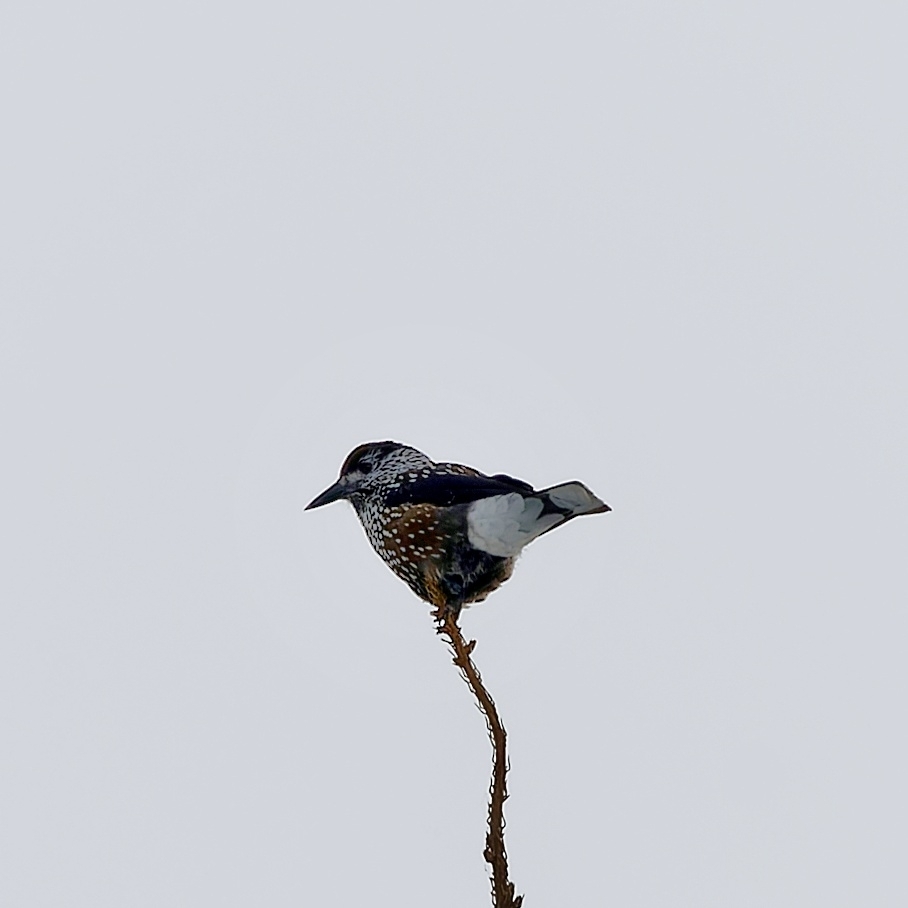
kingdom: Animalia
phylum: Chordata
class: Aves
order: Passeriformes
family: Corvidae
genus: Nucifraga
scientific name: Nucifraga caryocatactes
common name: Spotted nutcracker
